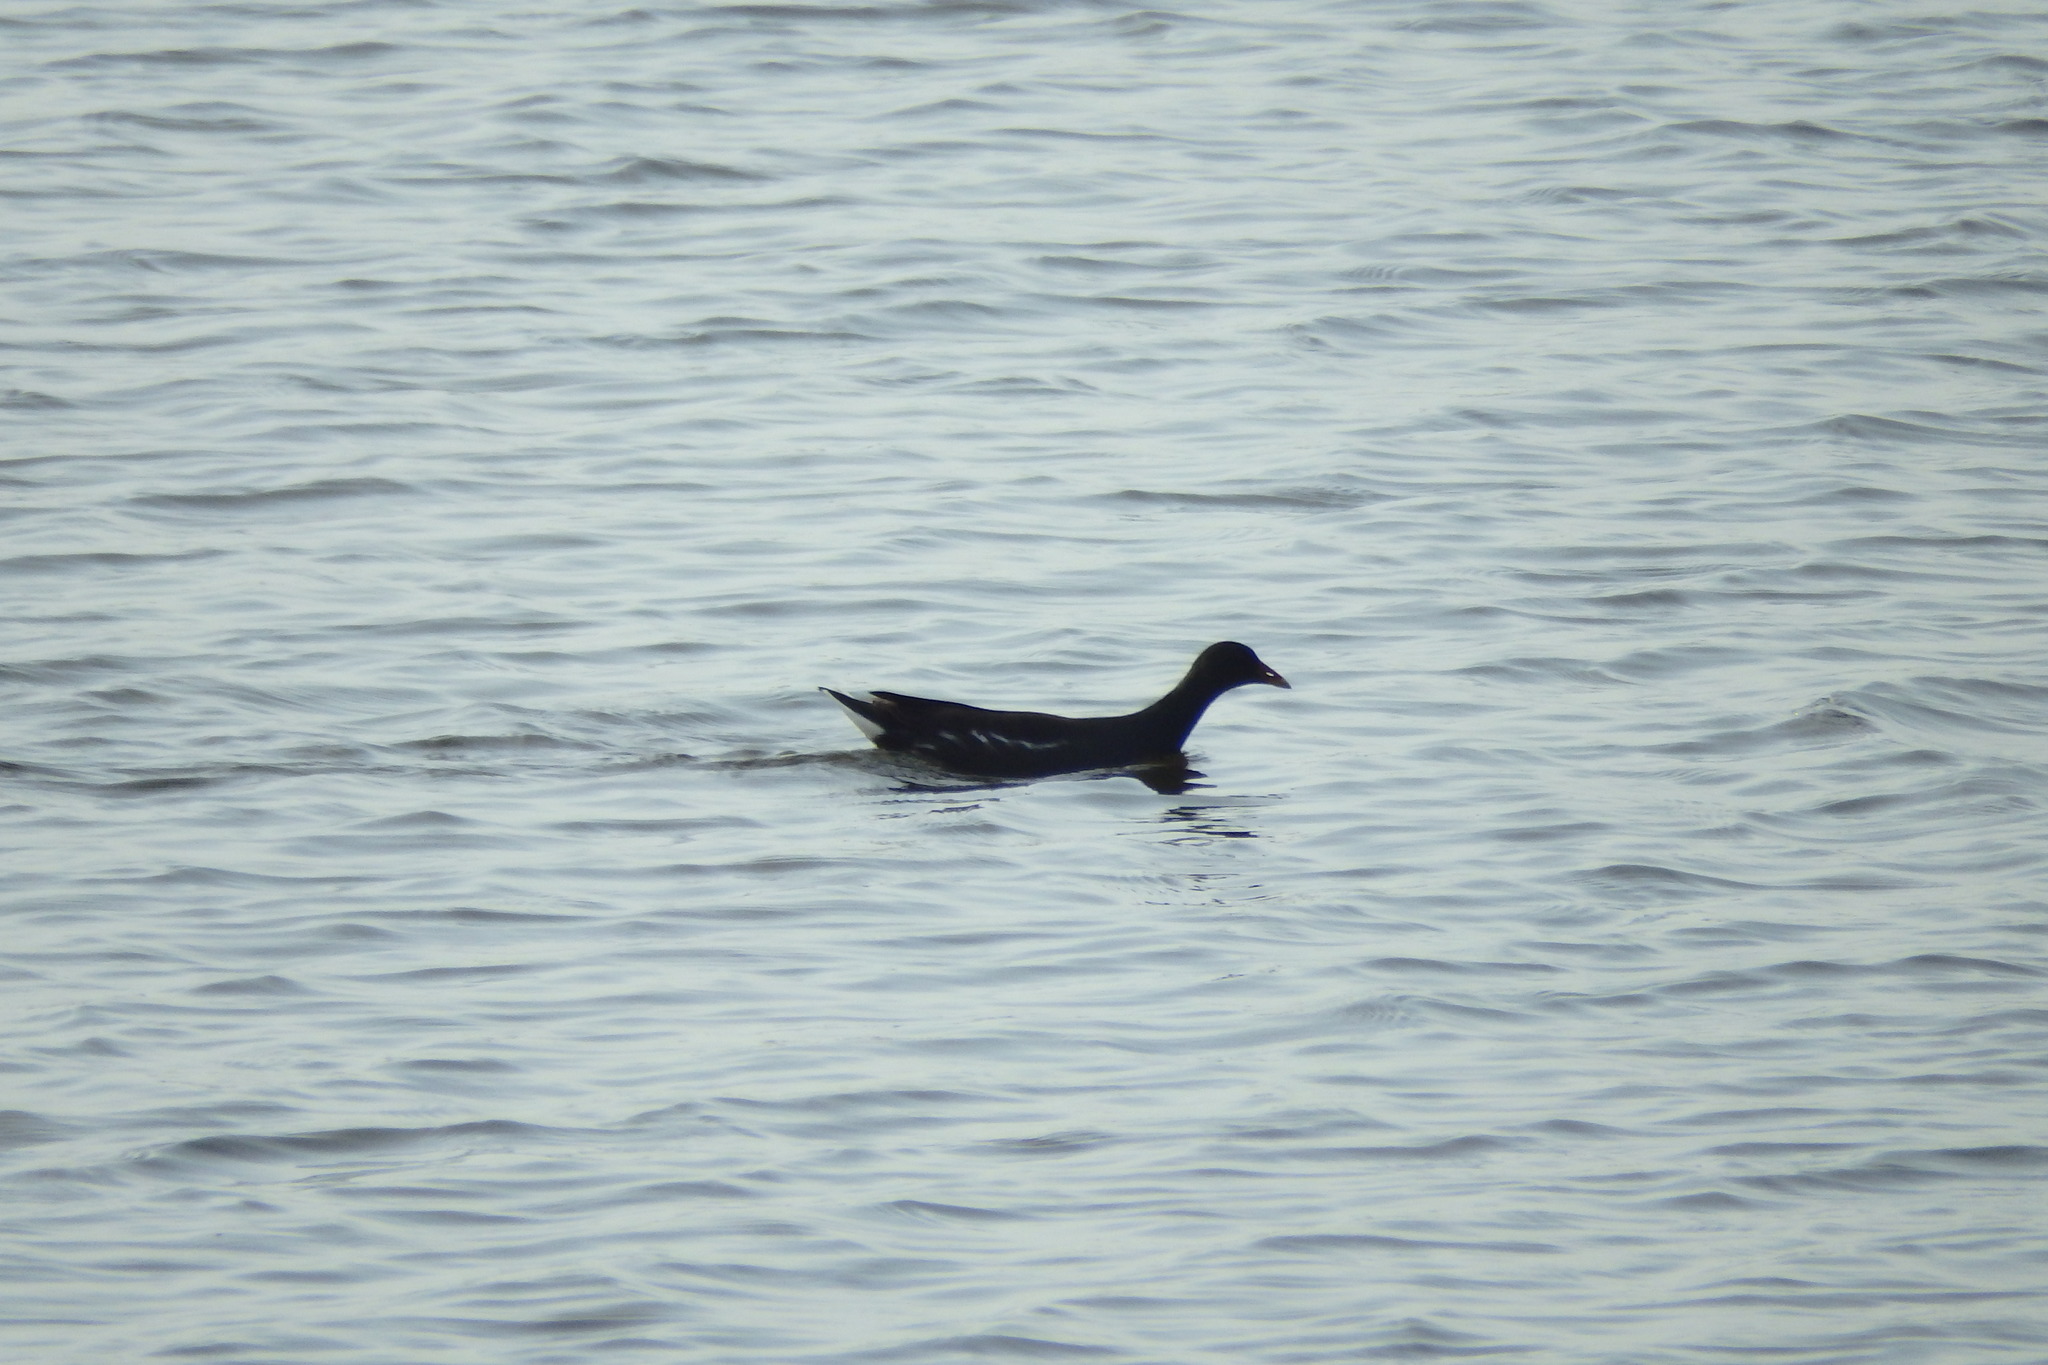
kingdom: Animalia
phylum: Chordata
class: Aves
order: Gruiformes
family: Rallidae
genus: Gallinula
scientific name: Gallinula chloropus
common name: Common moorhen
